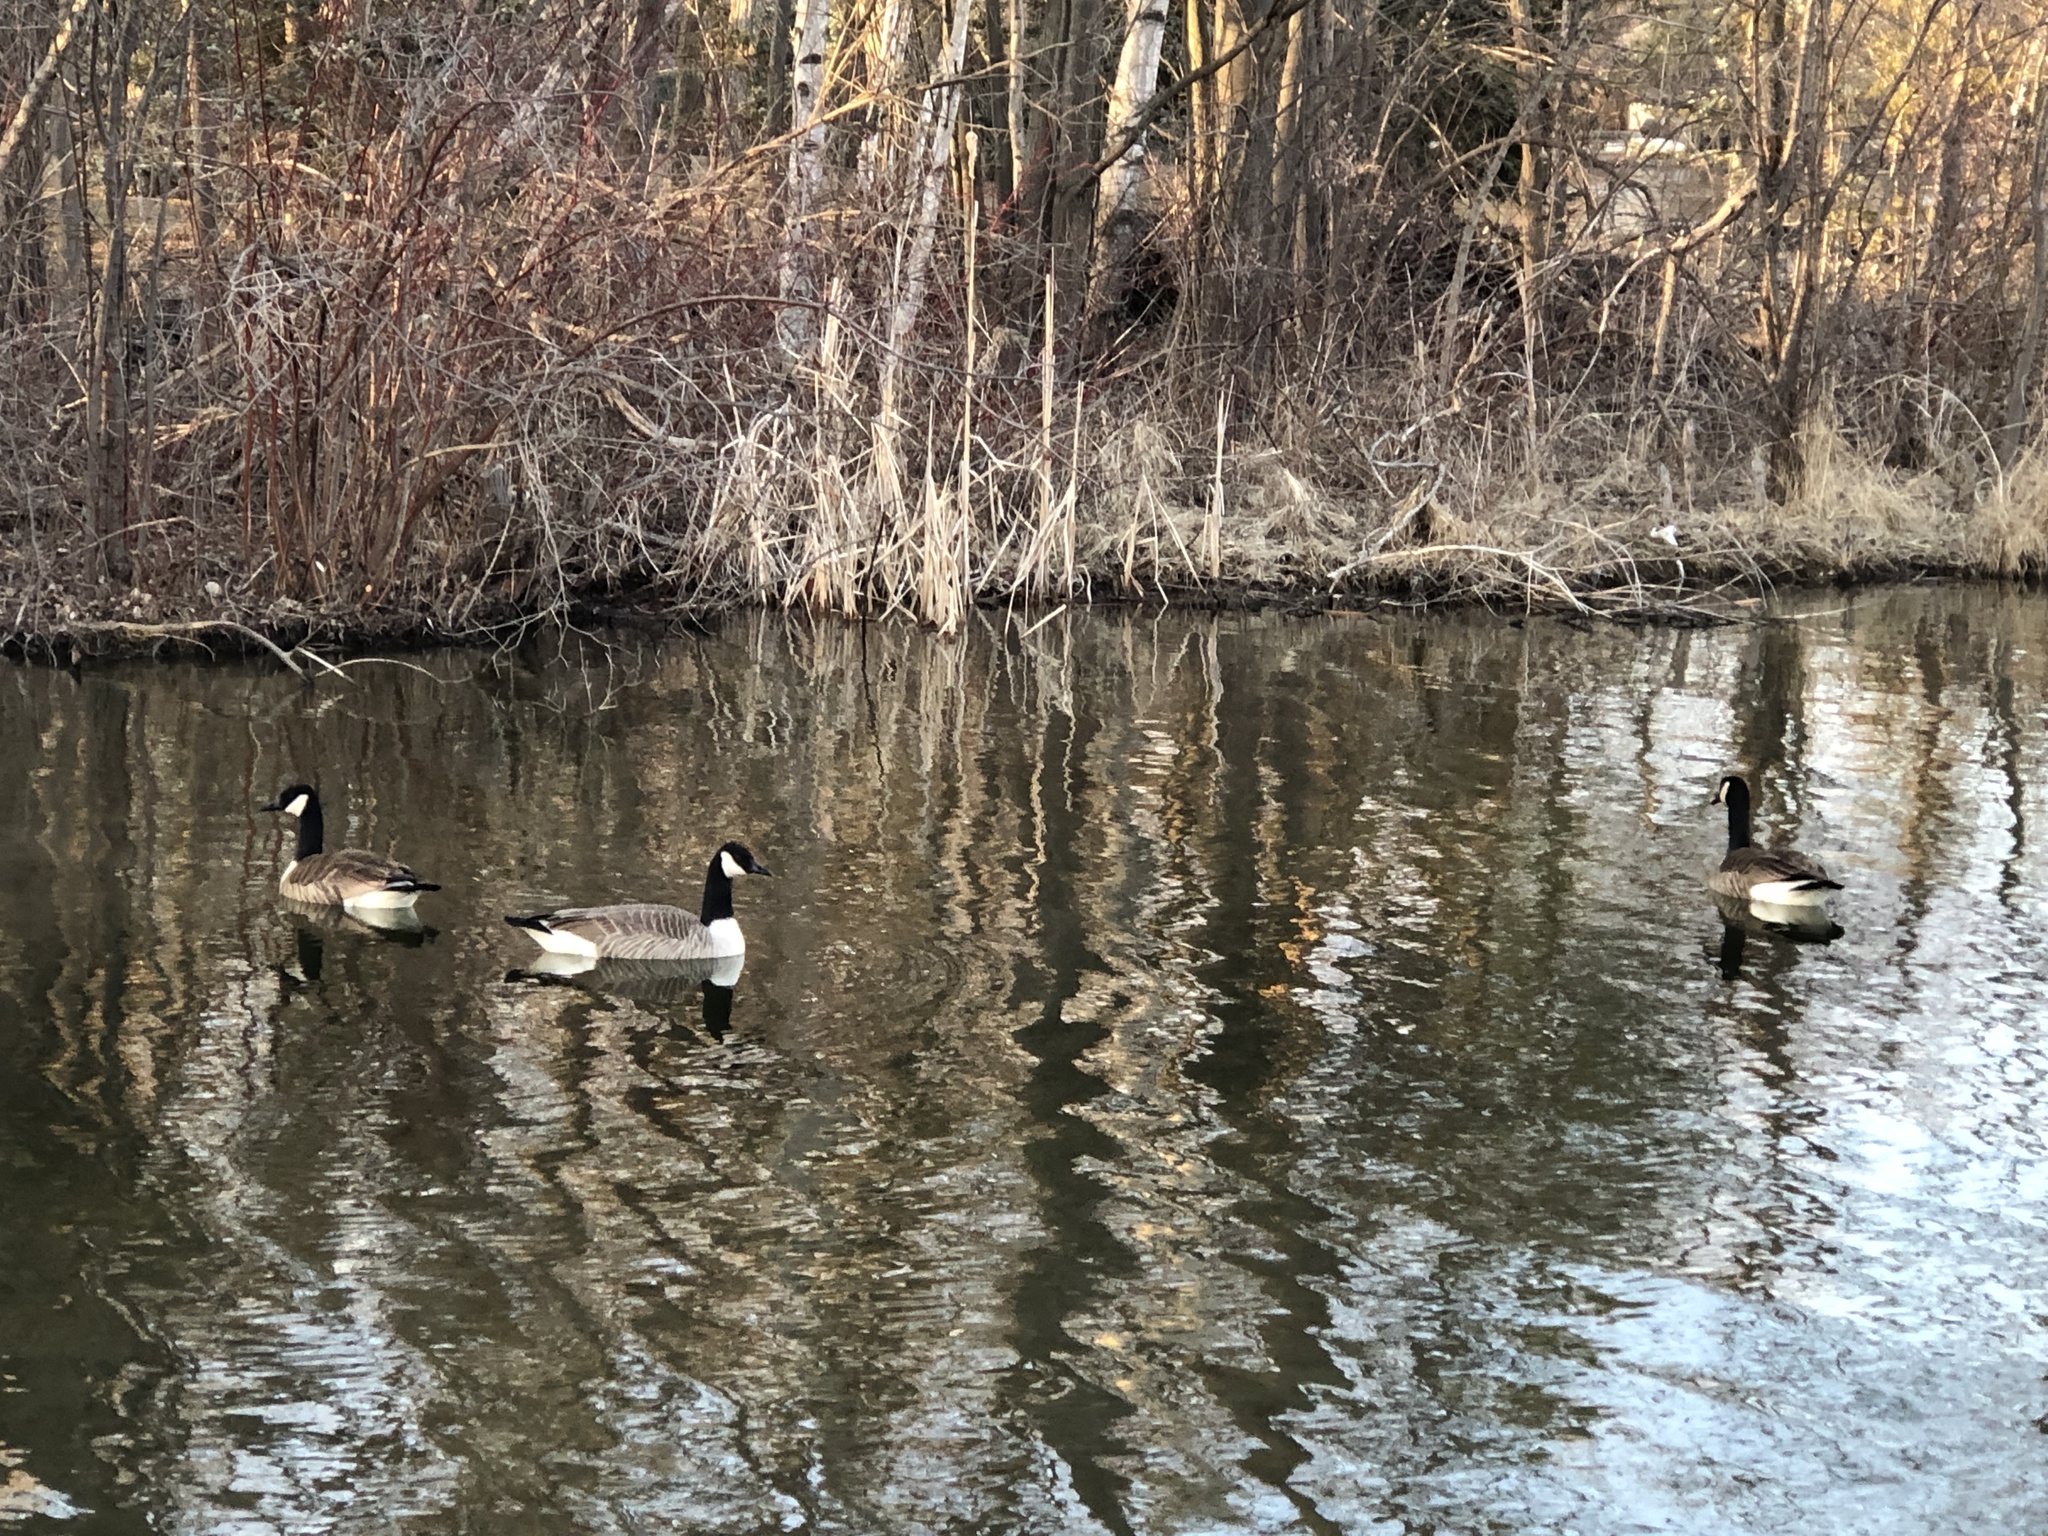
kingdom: Animalia
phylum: Chordata
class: Aves
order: Anseriformes
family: Anatidae
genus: Branta
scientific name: Branta canadensis
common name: Canada goose
